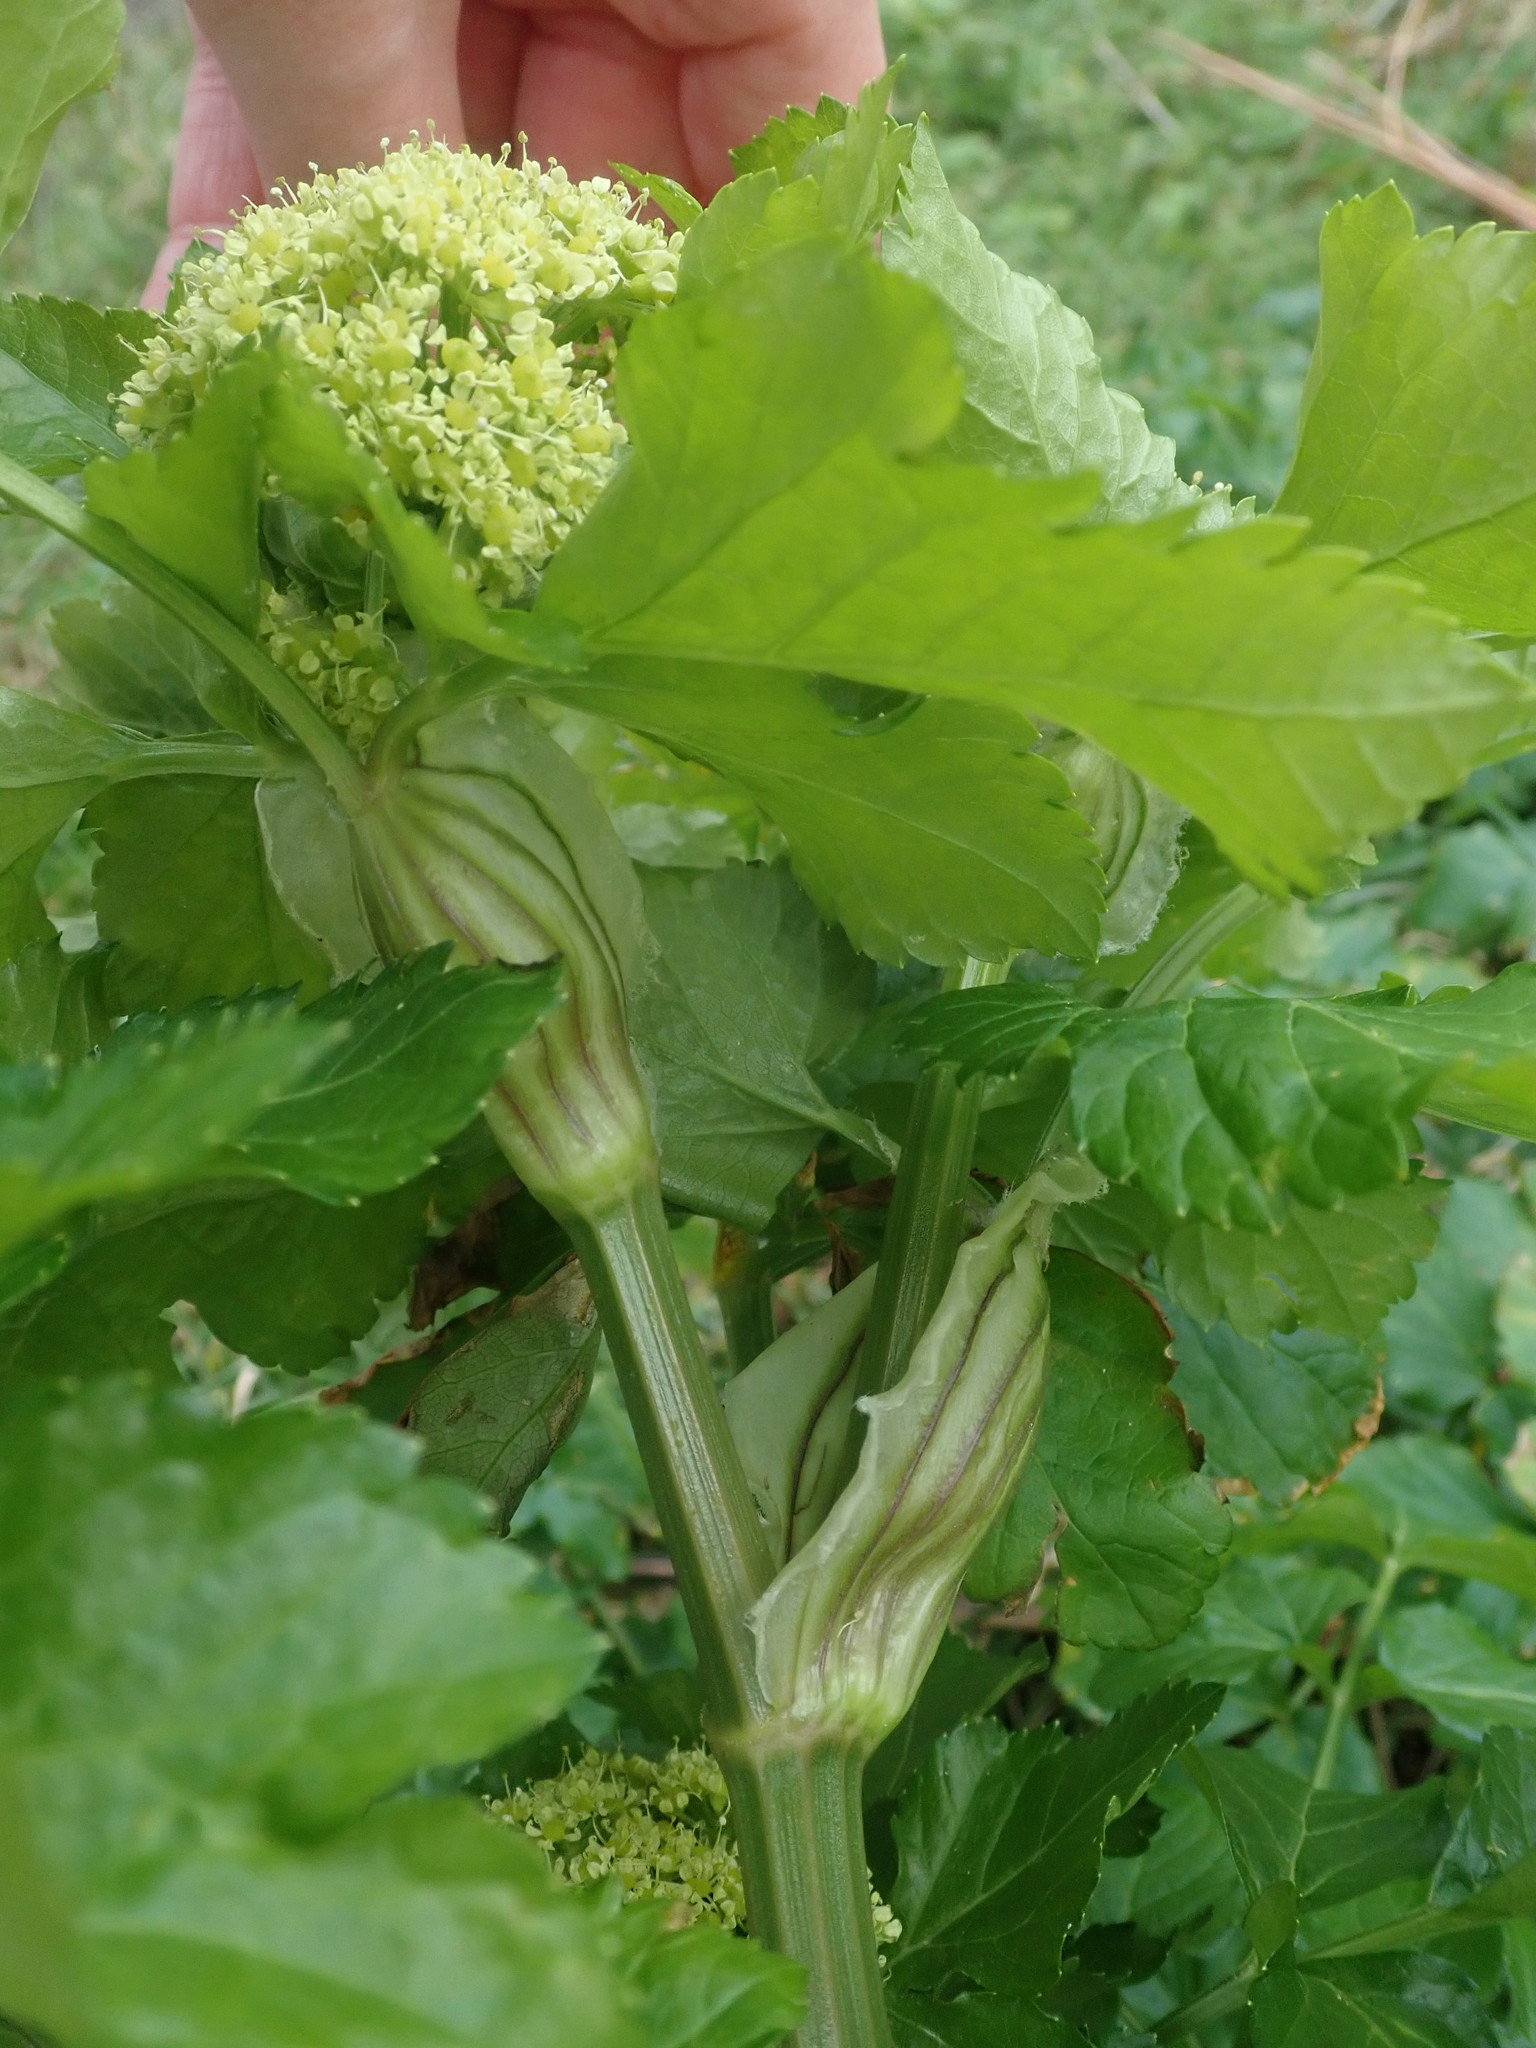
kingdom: Plantae
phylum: Tracheophyta
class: Magnoliopsida
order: Apiales
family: Apiaceae
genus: Smyrnium
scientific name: Smyrnium olusatrum
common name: Alexanders
